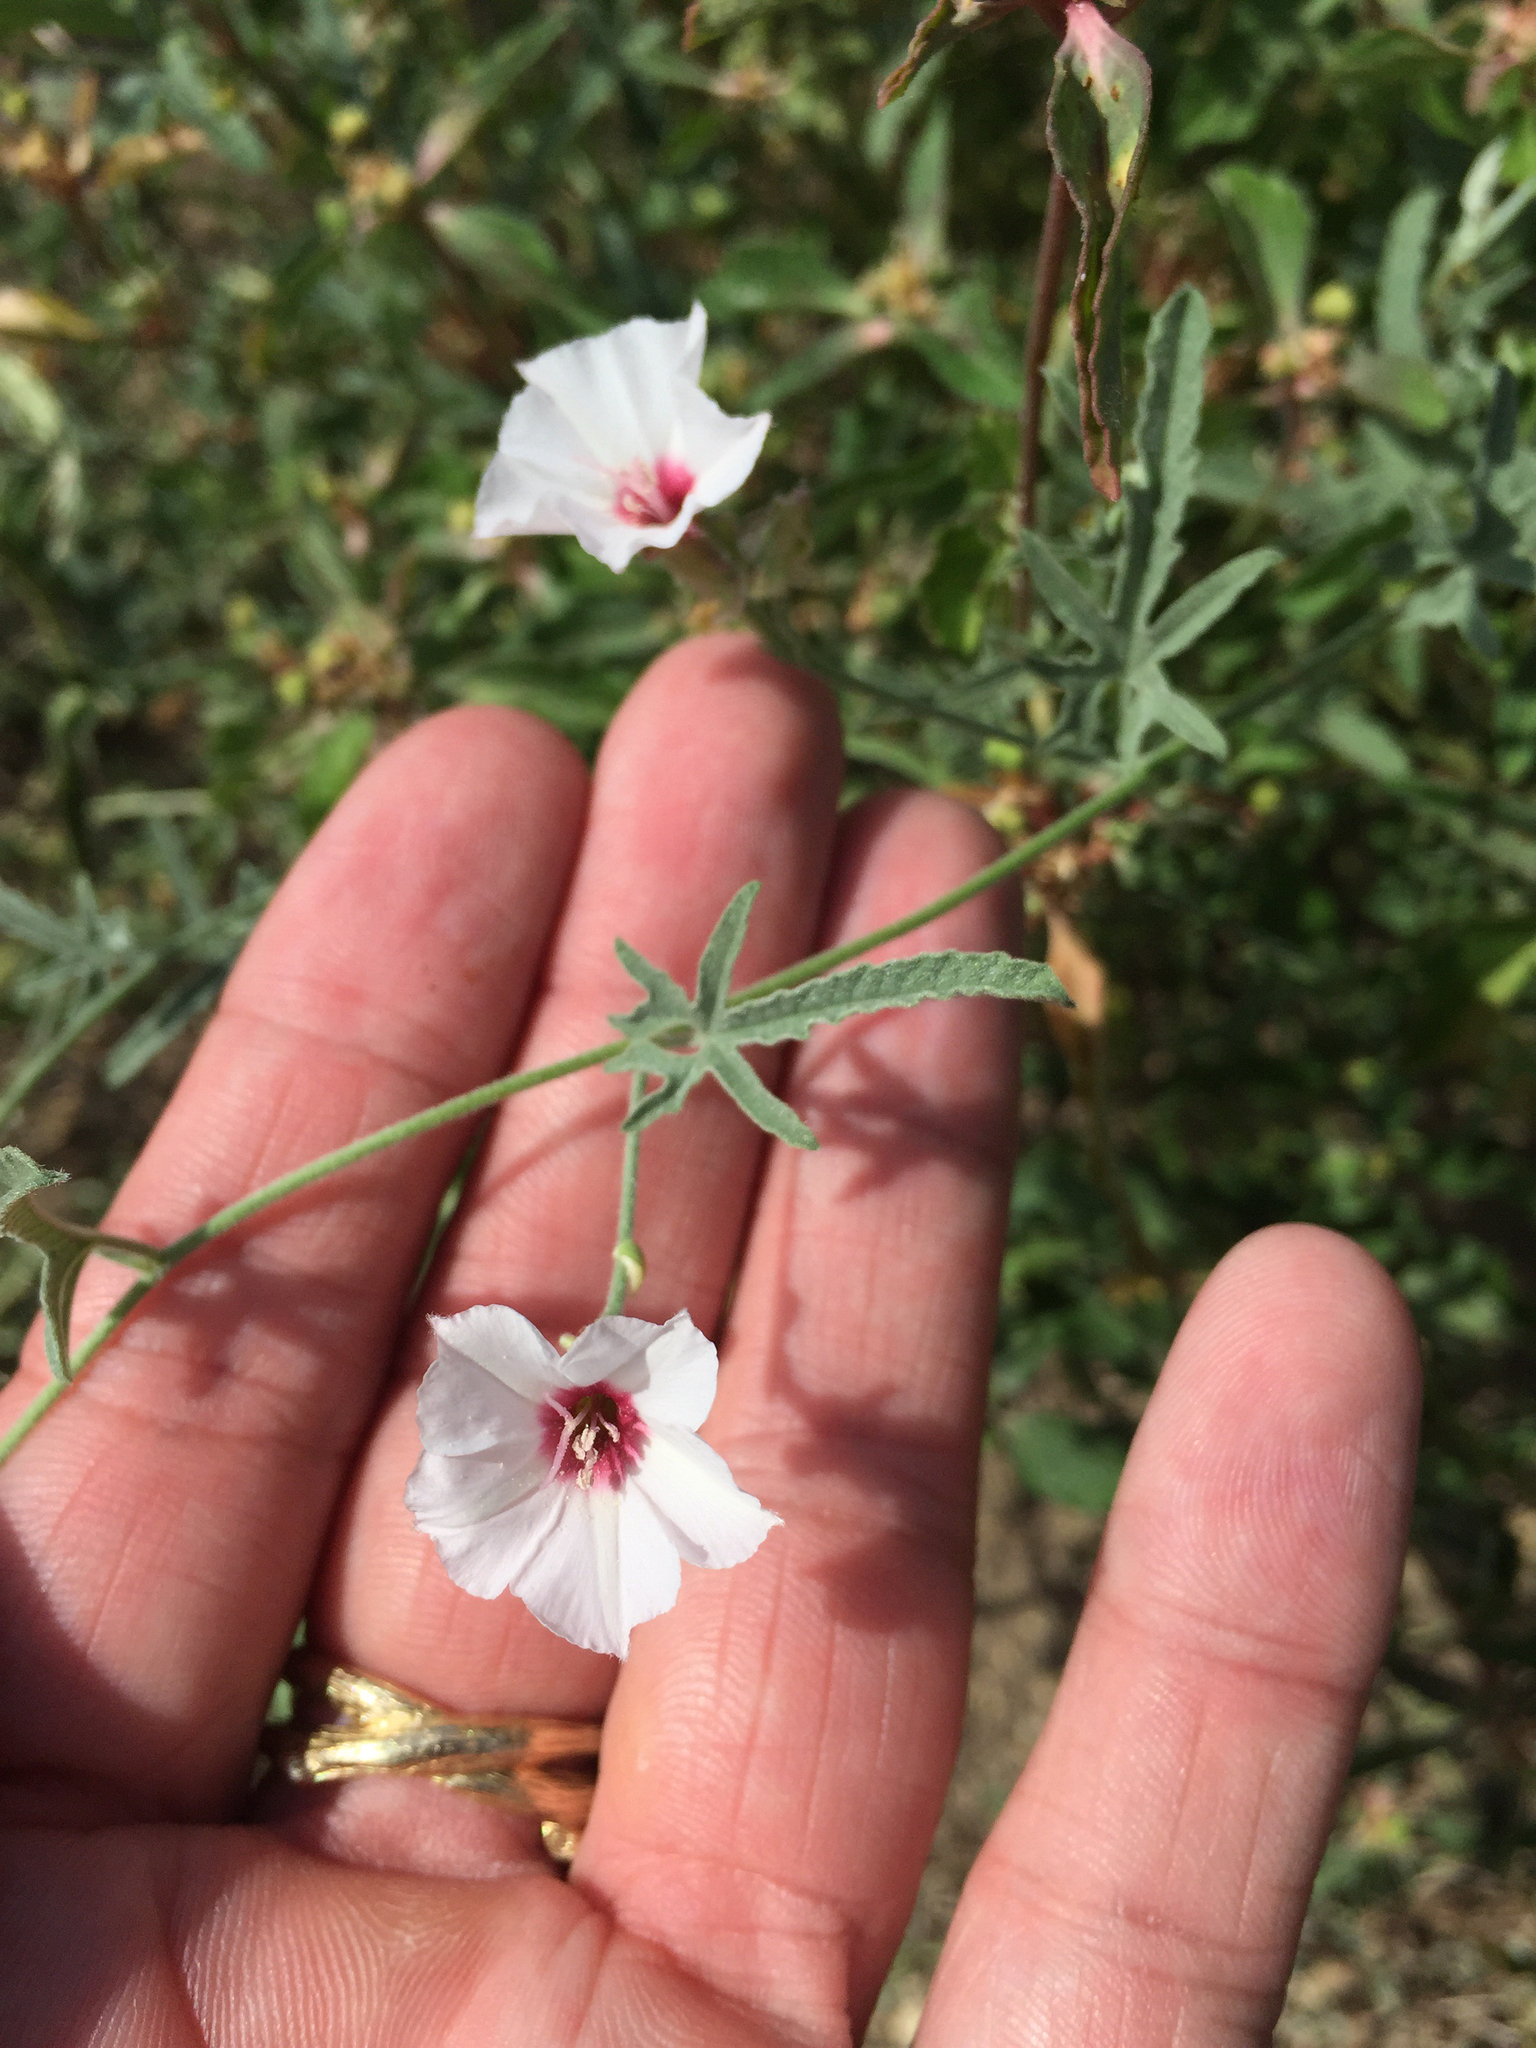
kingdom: Plantae
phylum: Tracheophyta
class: Magnoliopsida
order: Solanales
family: Convolvulaceae
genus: Convolvulus
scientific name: Convolvulus equitans
